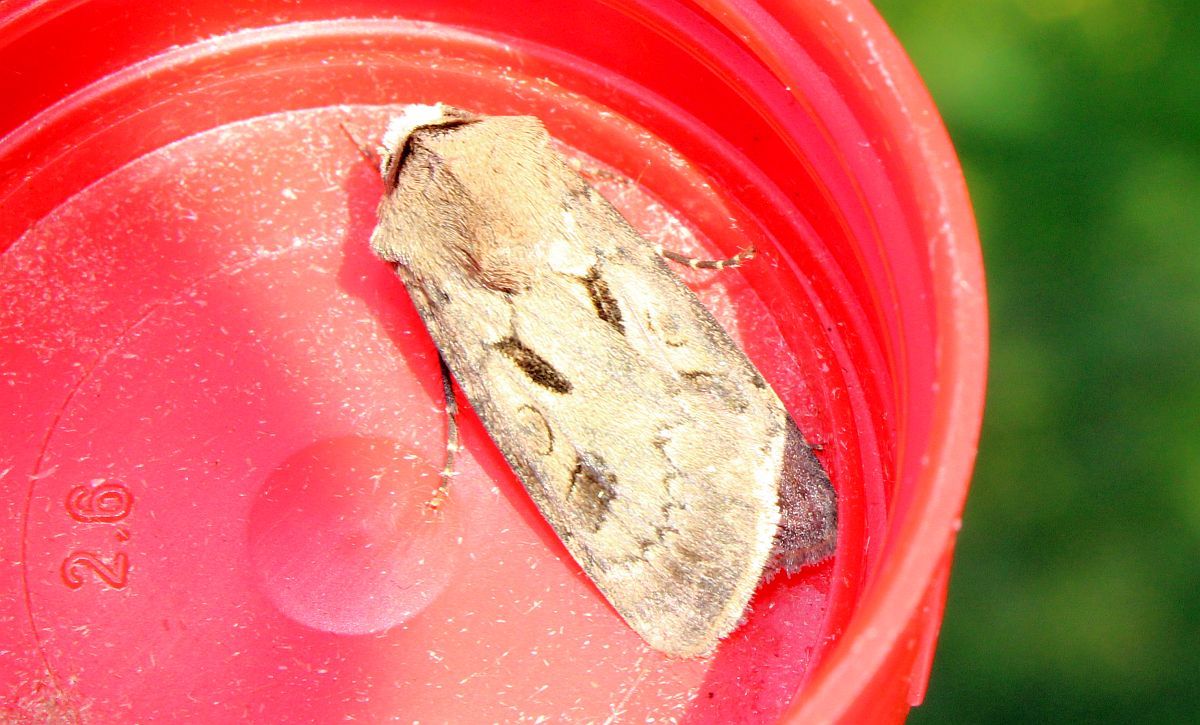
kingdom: Animalia
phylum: Arthropoda
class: Insecta
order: Lepidoptera
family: Noctuidae
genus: Agrotis
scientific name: Agrotis exclamationis
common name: Heart and dart
